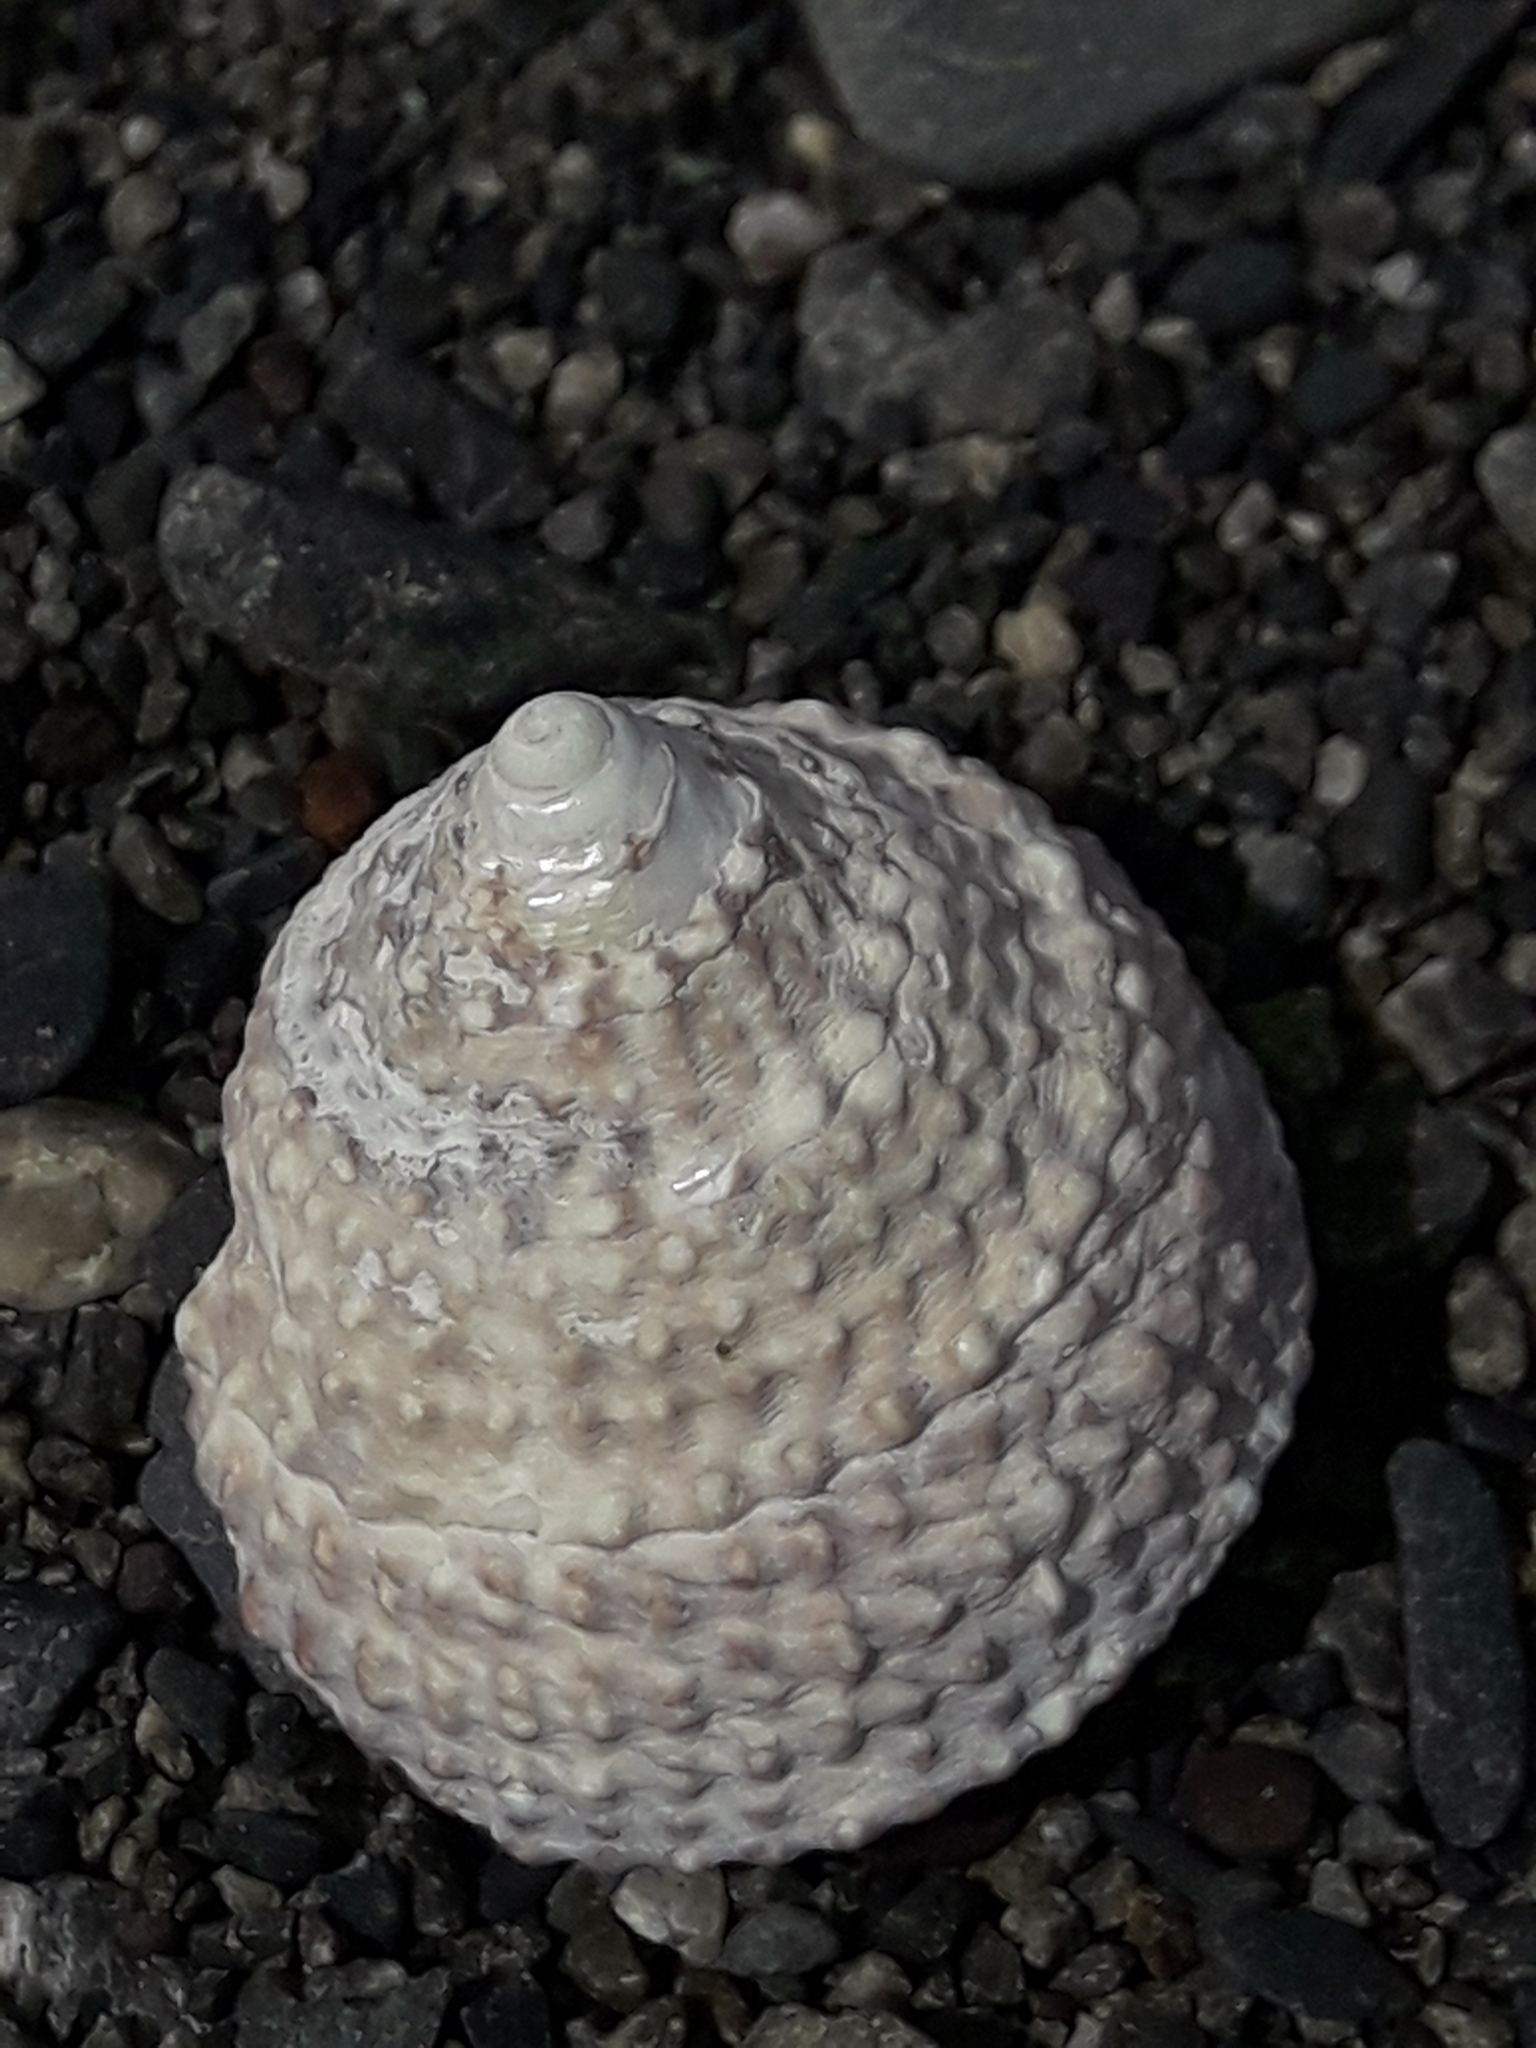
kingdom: Animalia
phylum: Mollusca
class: Gastropoda
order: Trochida
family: Trochidae
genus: Coelotrochus
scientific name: Coelotrochus viridis
